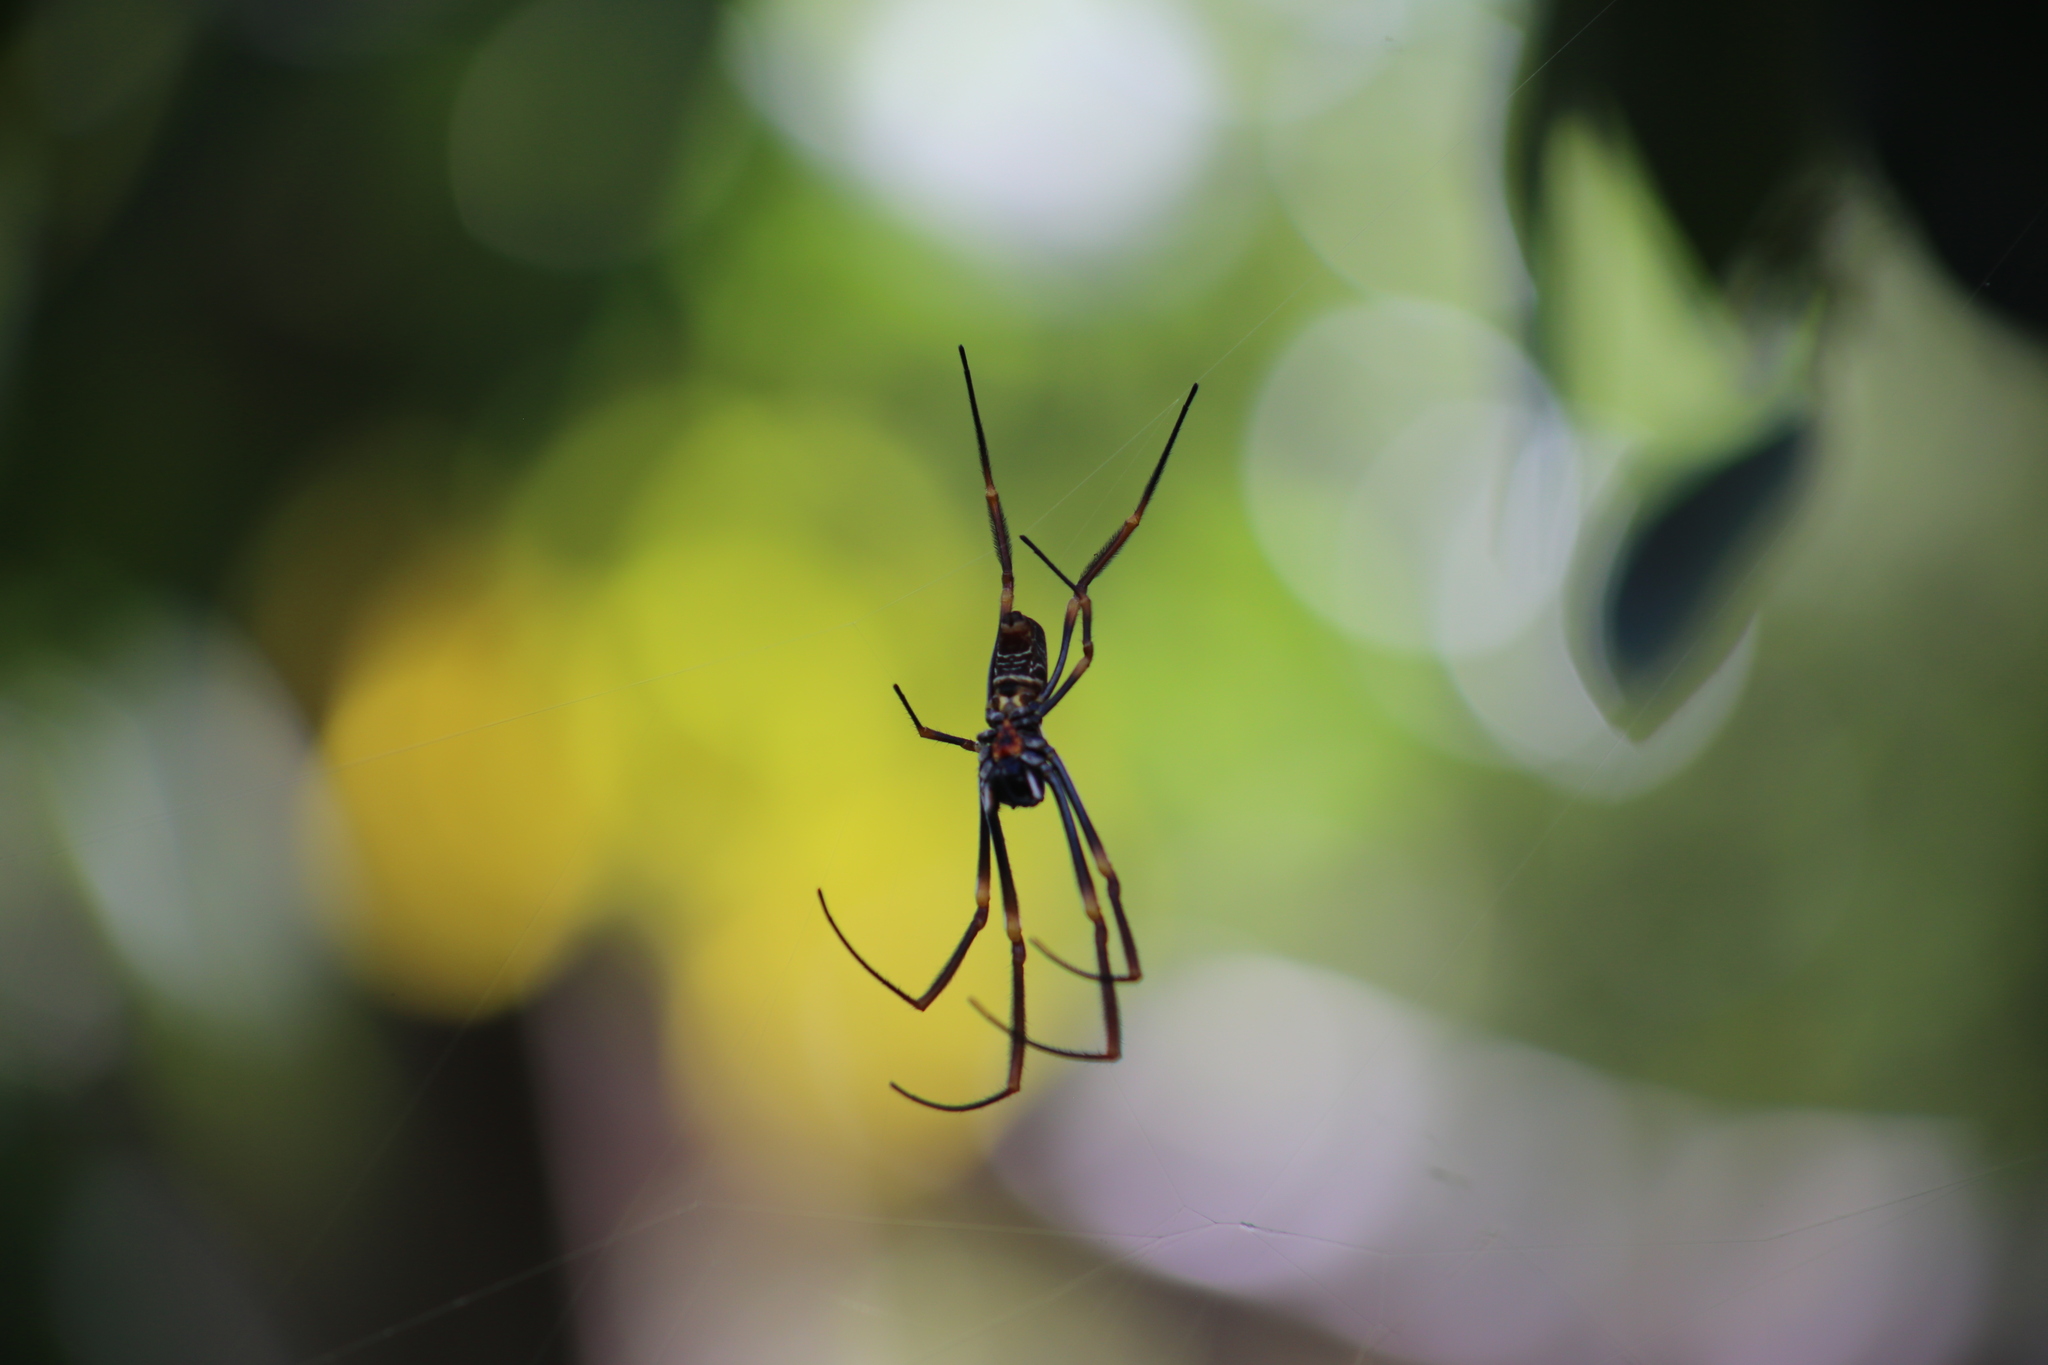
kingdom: Animalia
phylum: Arthropoda
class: Arachnida
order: Araneae
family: Araneidae
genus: Trichonephila
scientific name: Trichonephila plumipes
